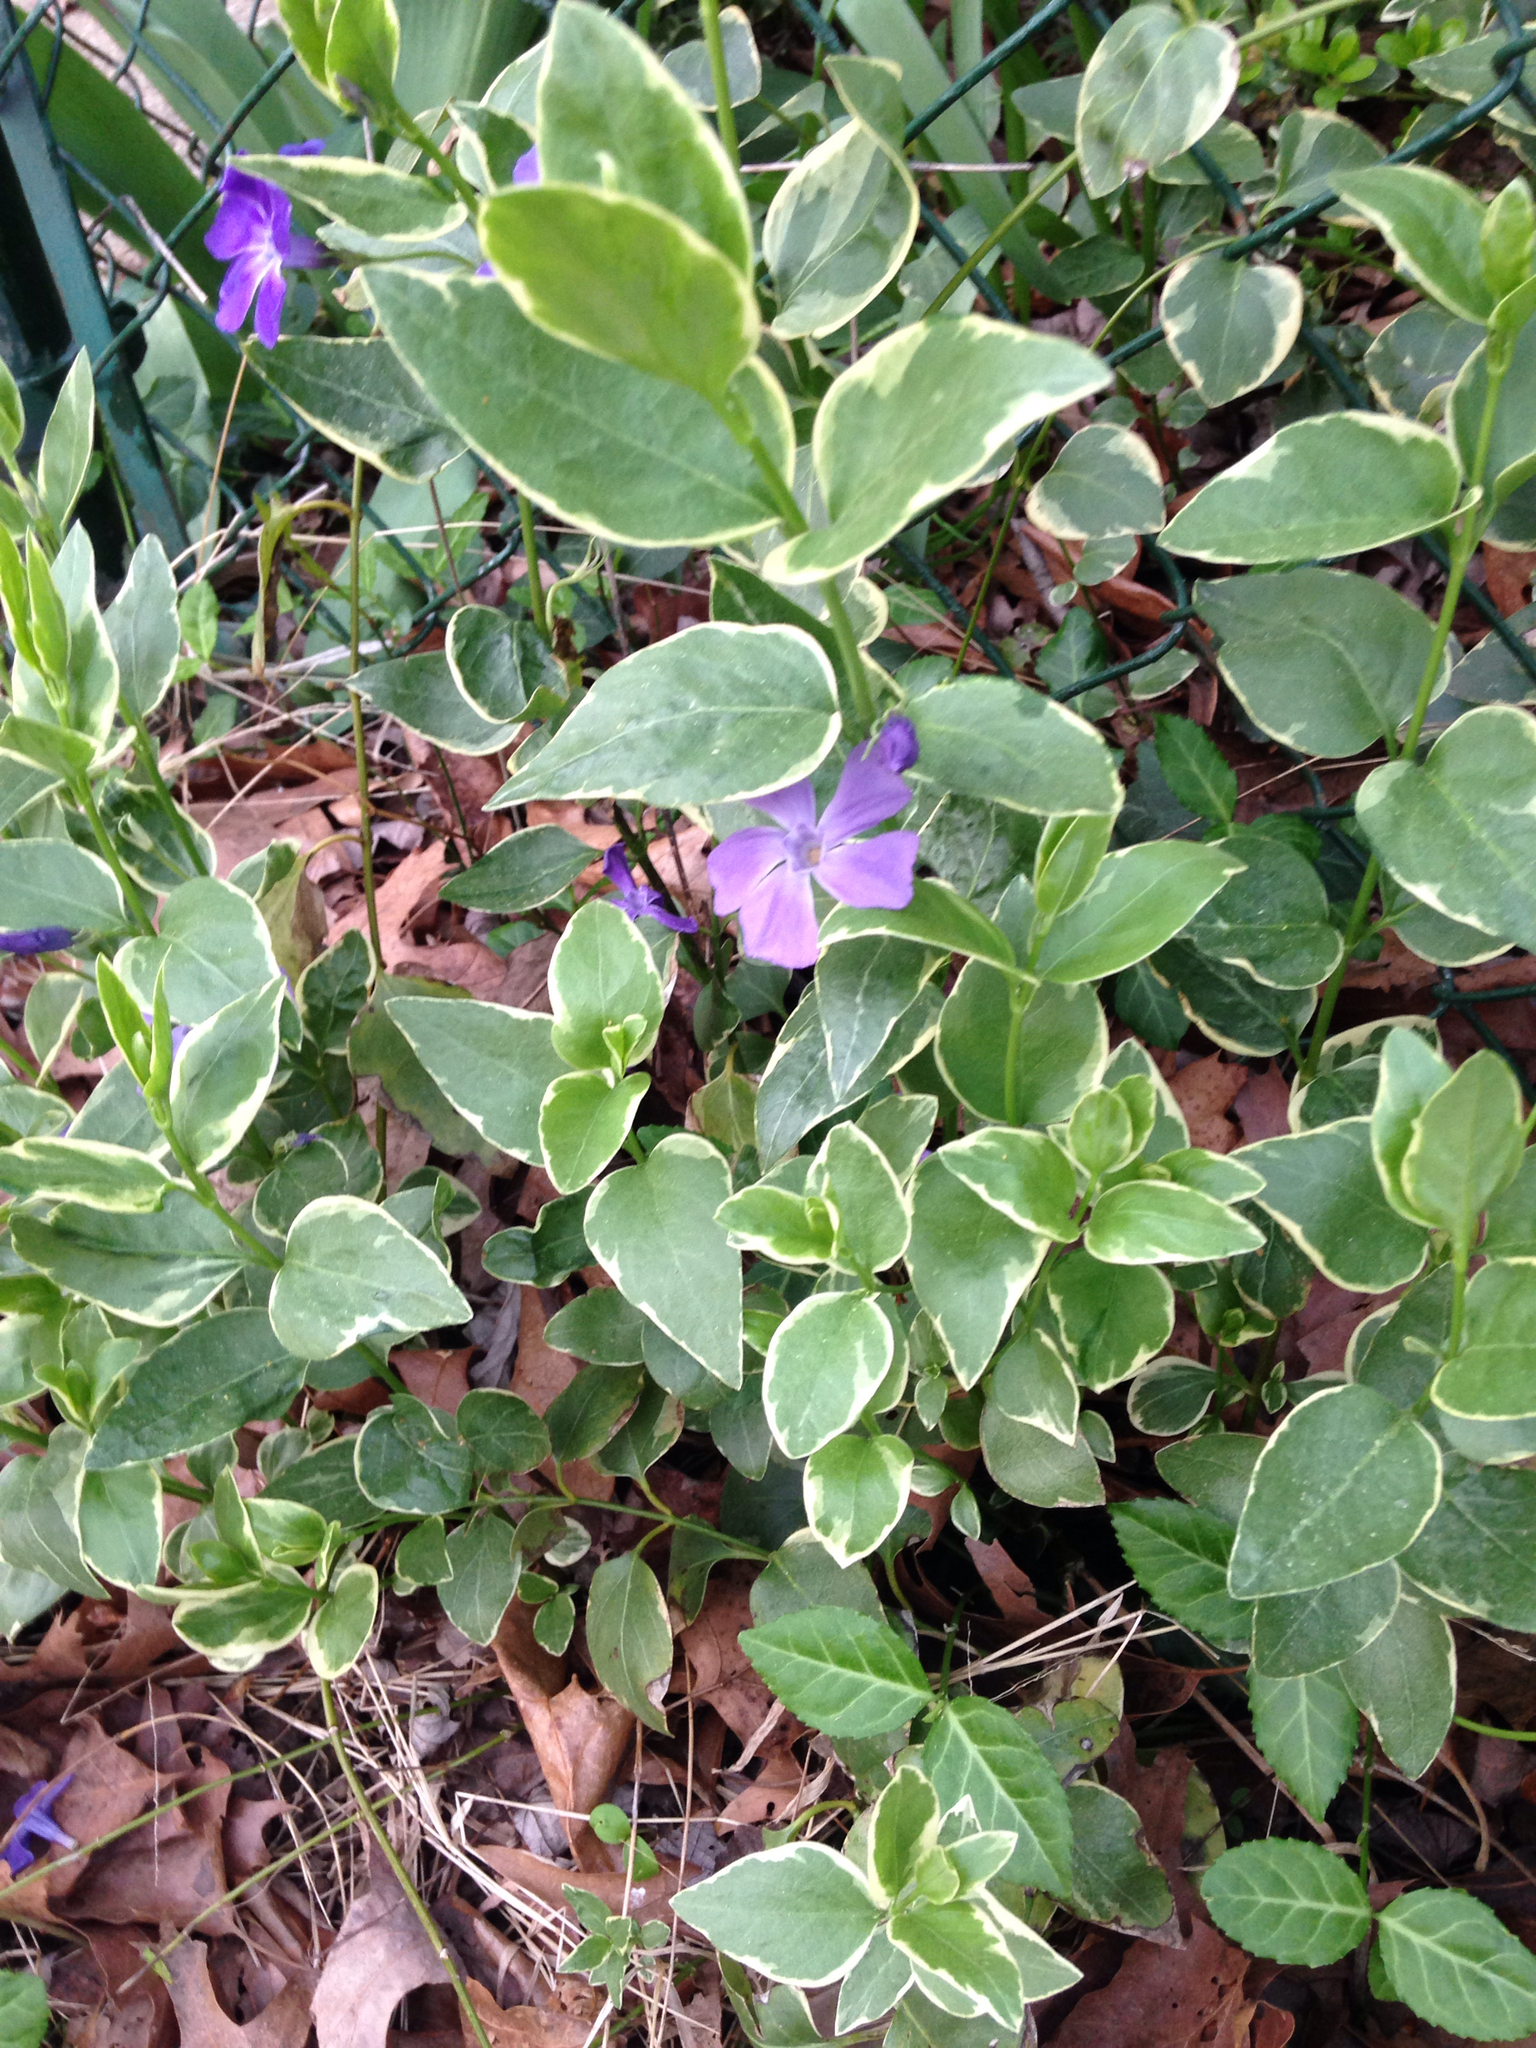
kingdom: Plantae
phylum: Tracheophyta
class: Magnoliopsida
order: Gentianales
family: Apocynaceae
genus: Vinca
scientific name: Vinca major
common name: Greater periwinkle
